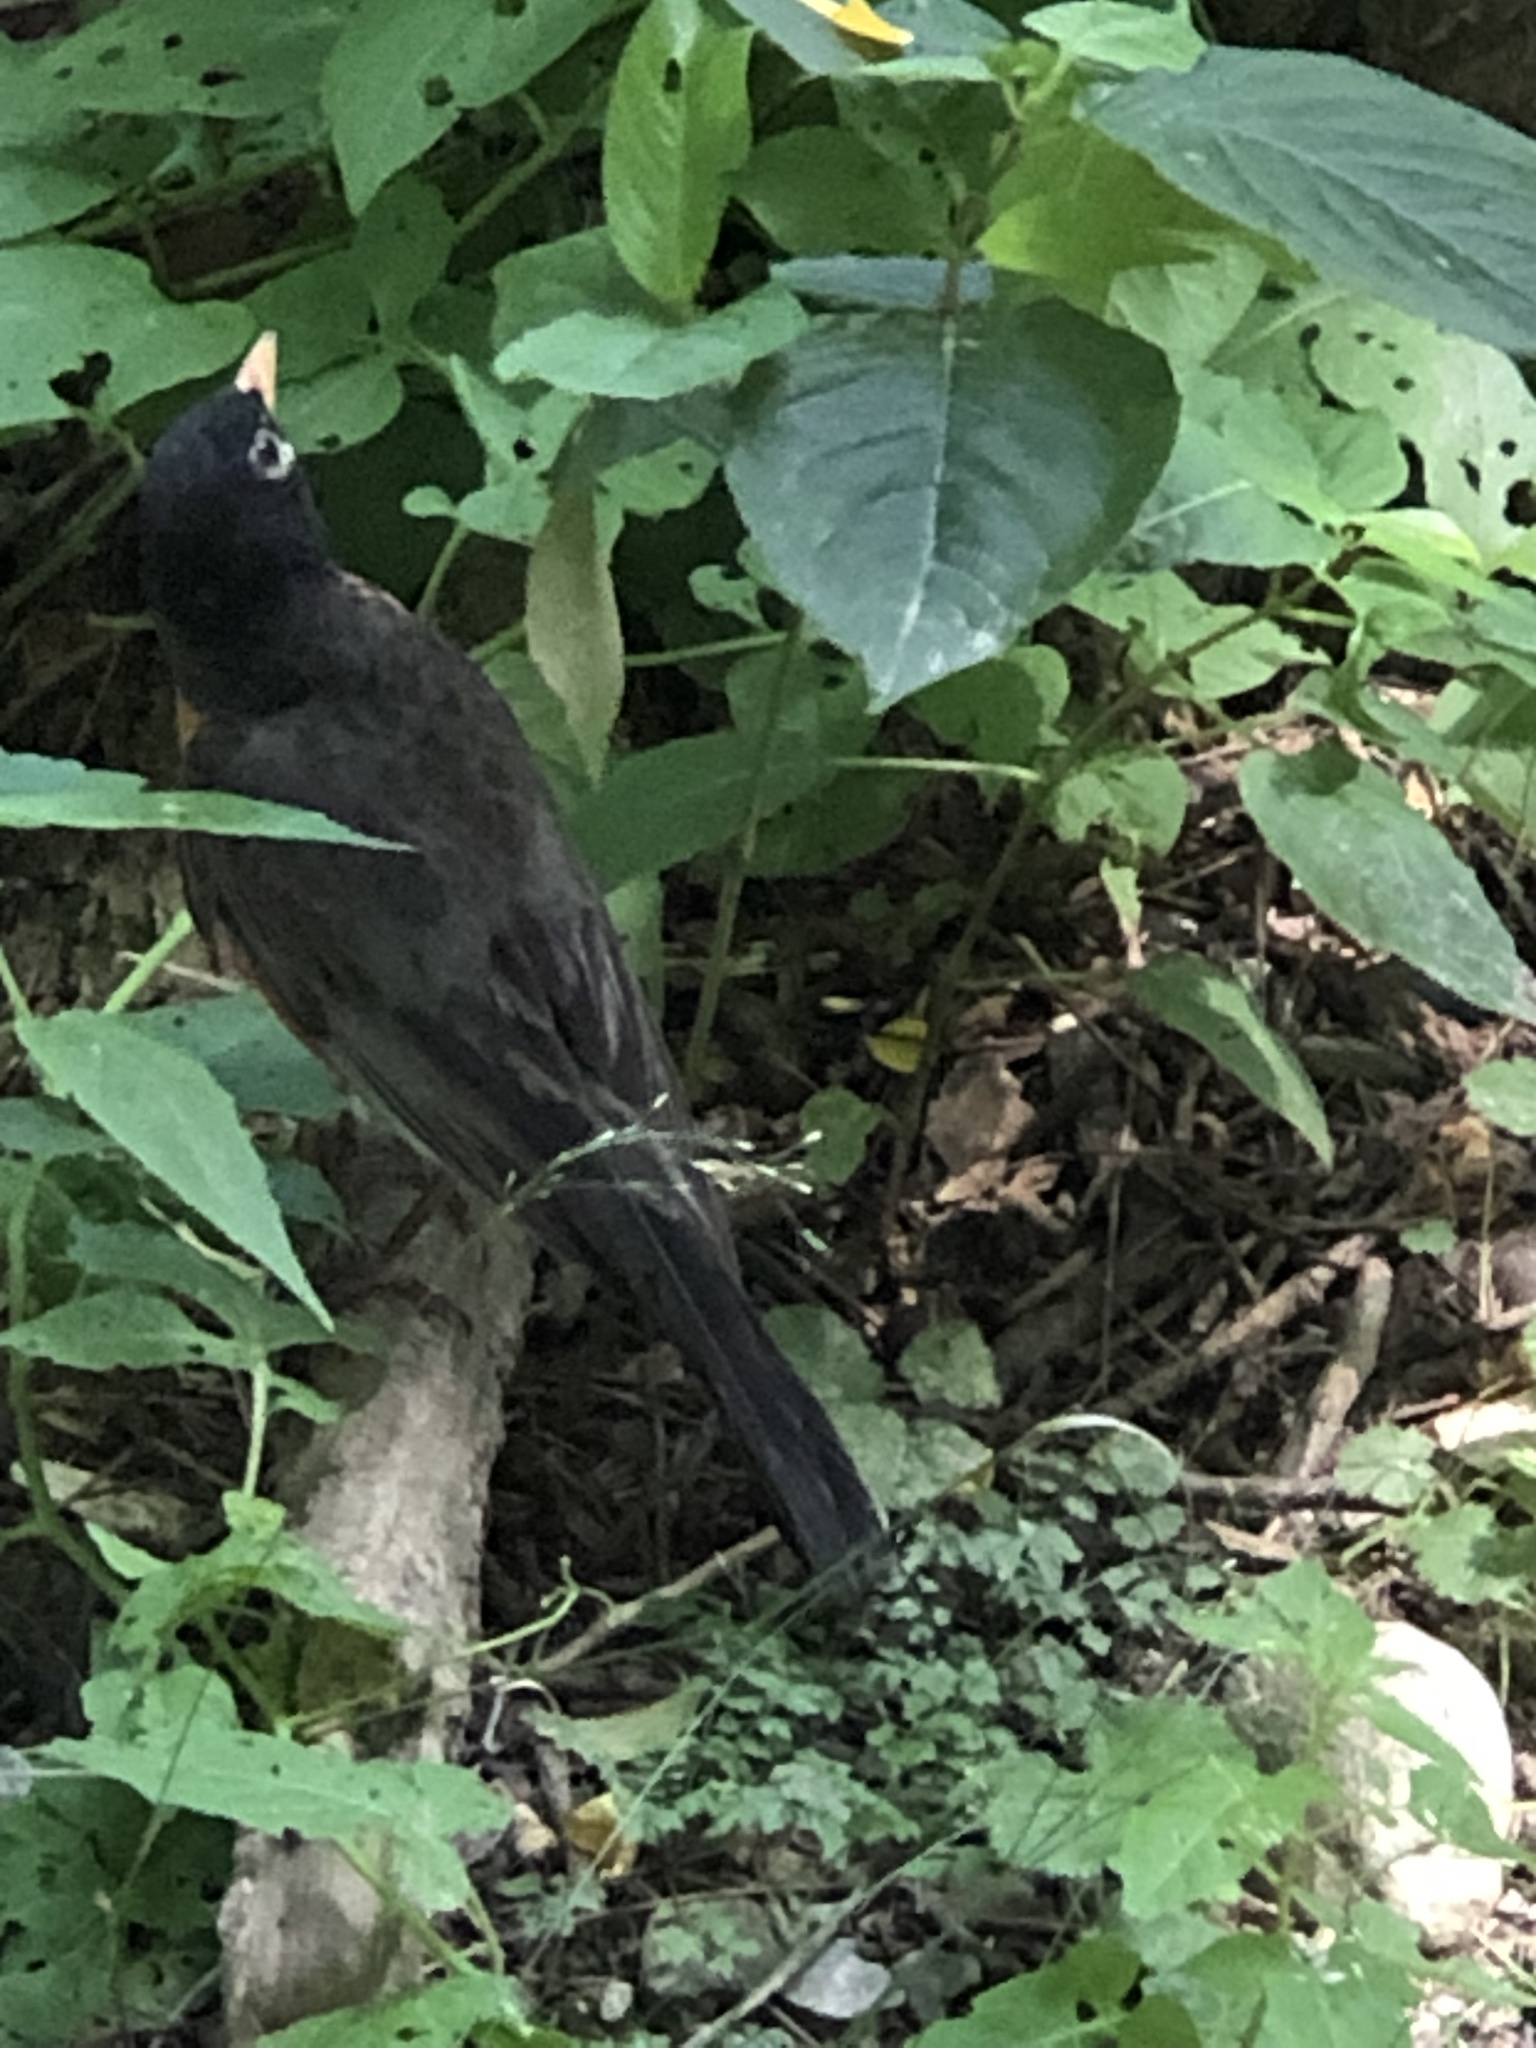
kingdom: Animalia
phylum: Chordata
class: Aves
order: Passeriformes
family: Turdidae
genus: Turdus
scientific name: Turdus migratorius
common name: American robin
